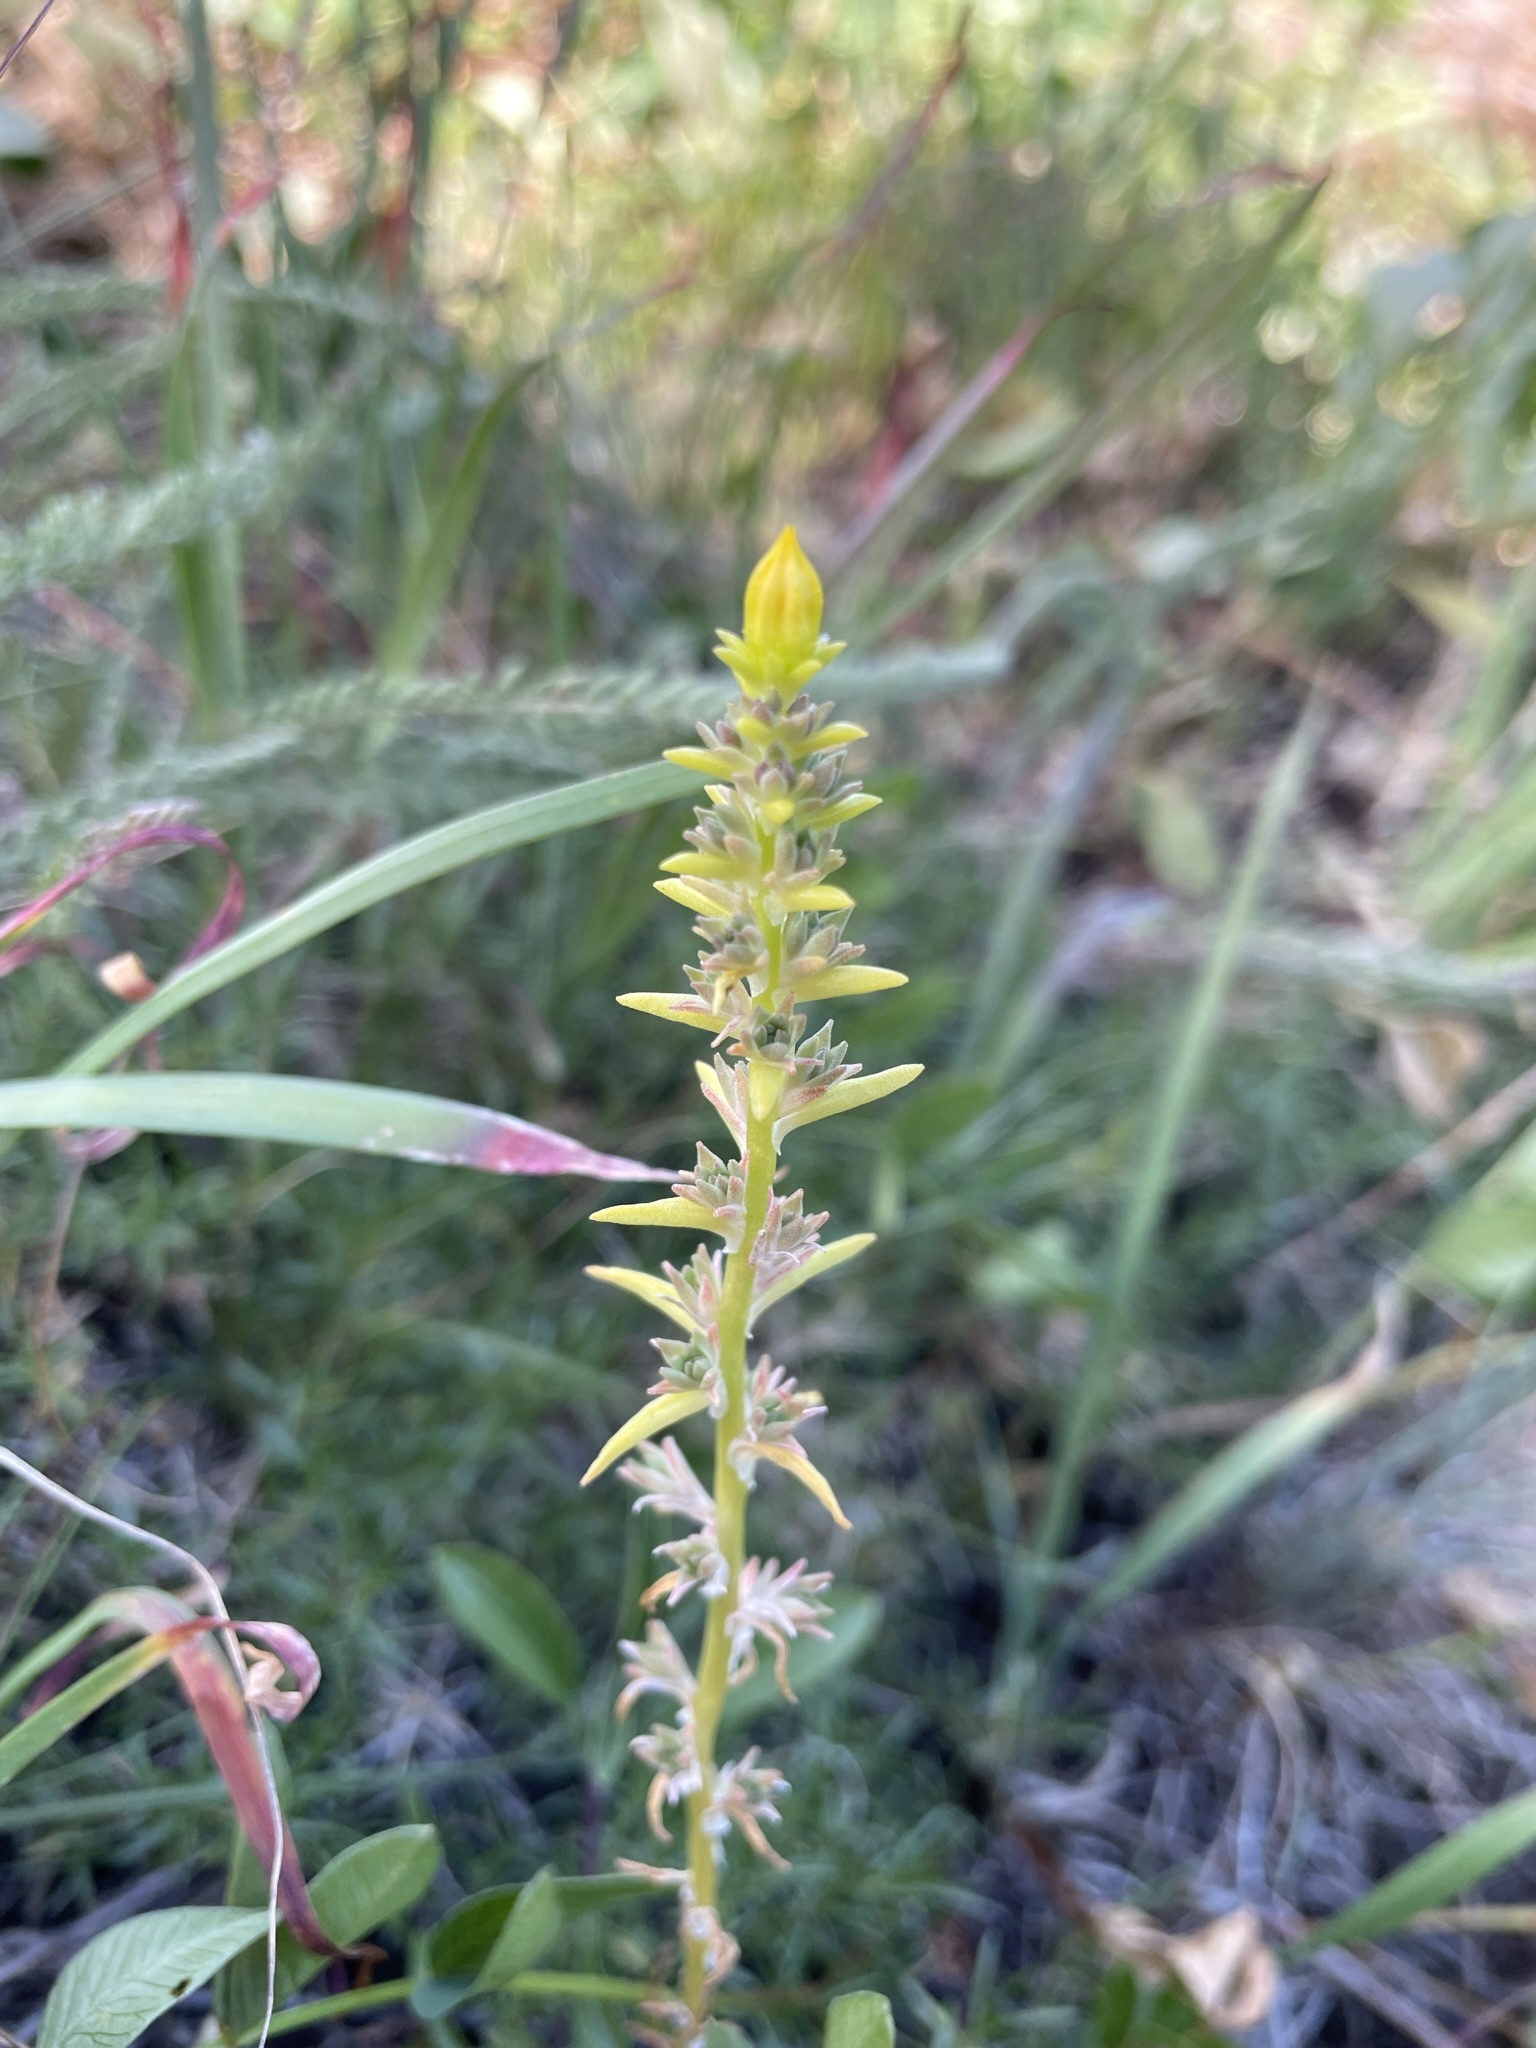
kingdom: Plantae
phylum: Tracheophyta
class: Magnoliopsida
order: Saxifragales
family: Crassulaceae
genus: Sedum
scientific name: Sedum stenopetalum
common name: Narrow-petaled stonecrop
